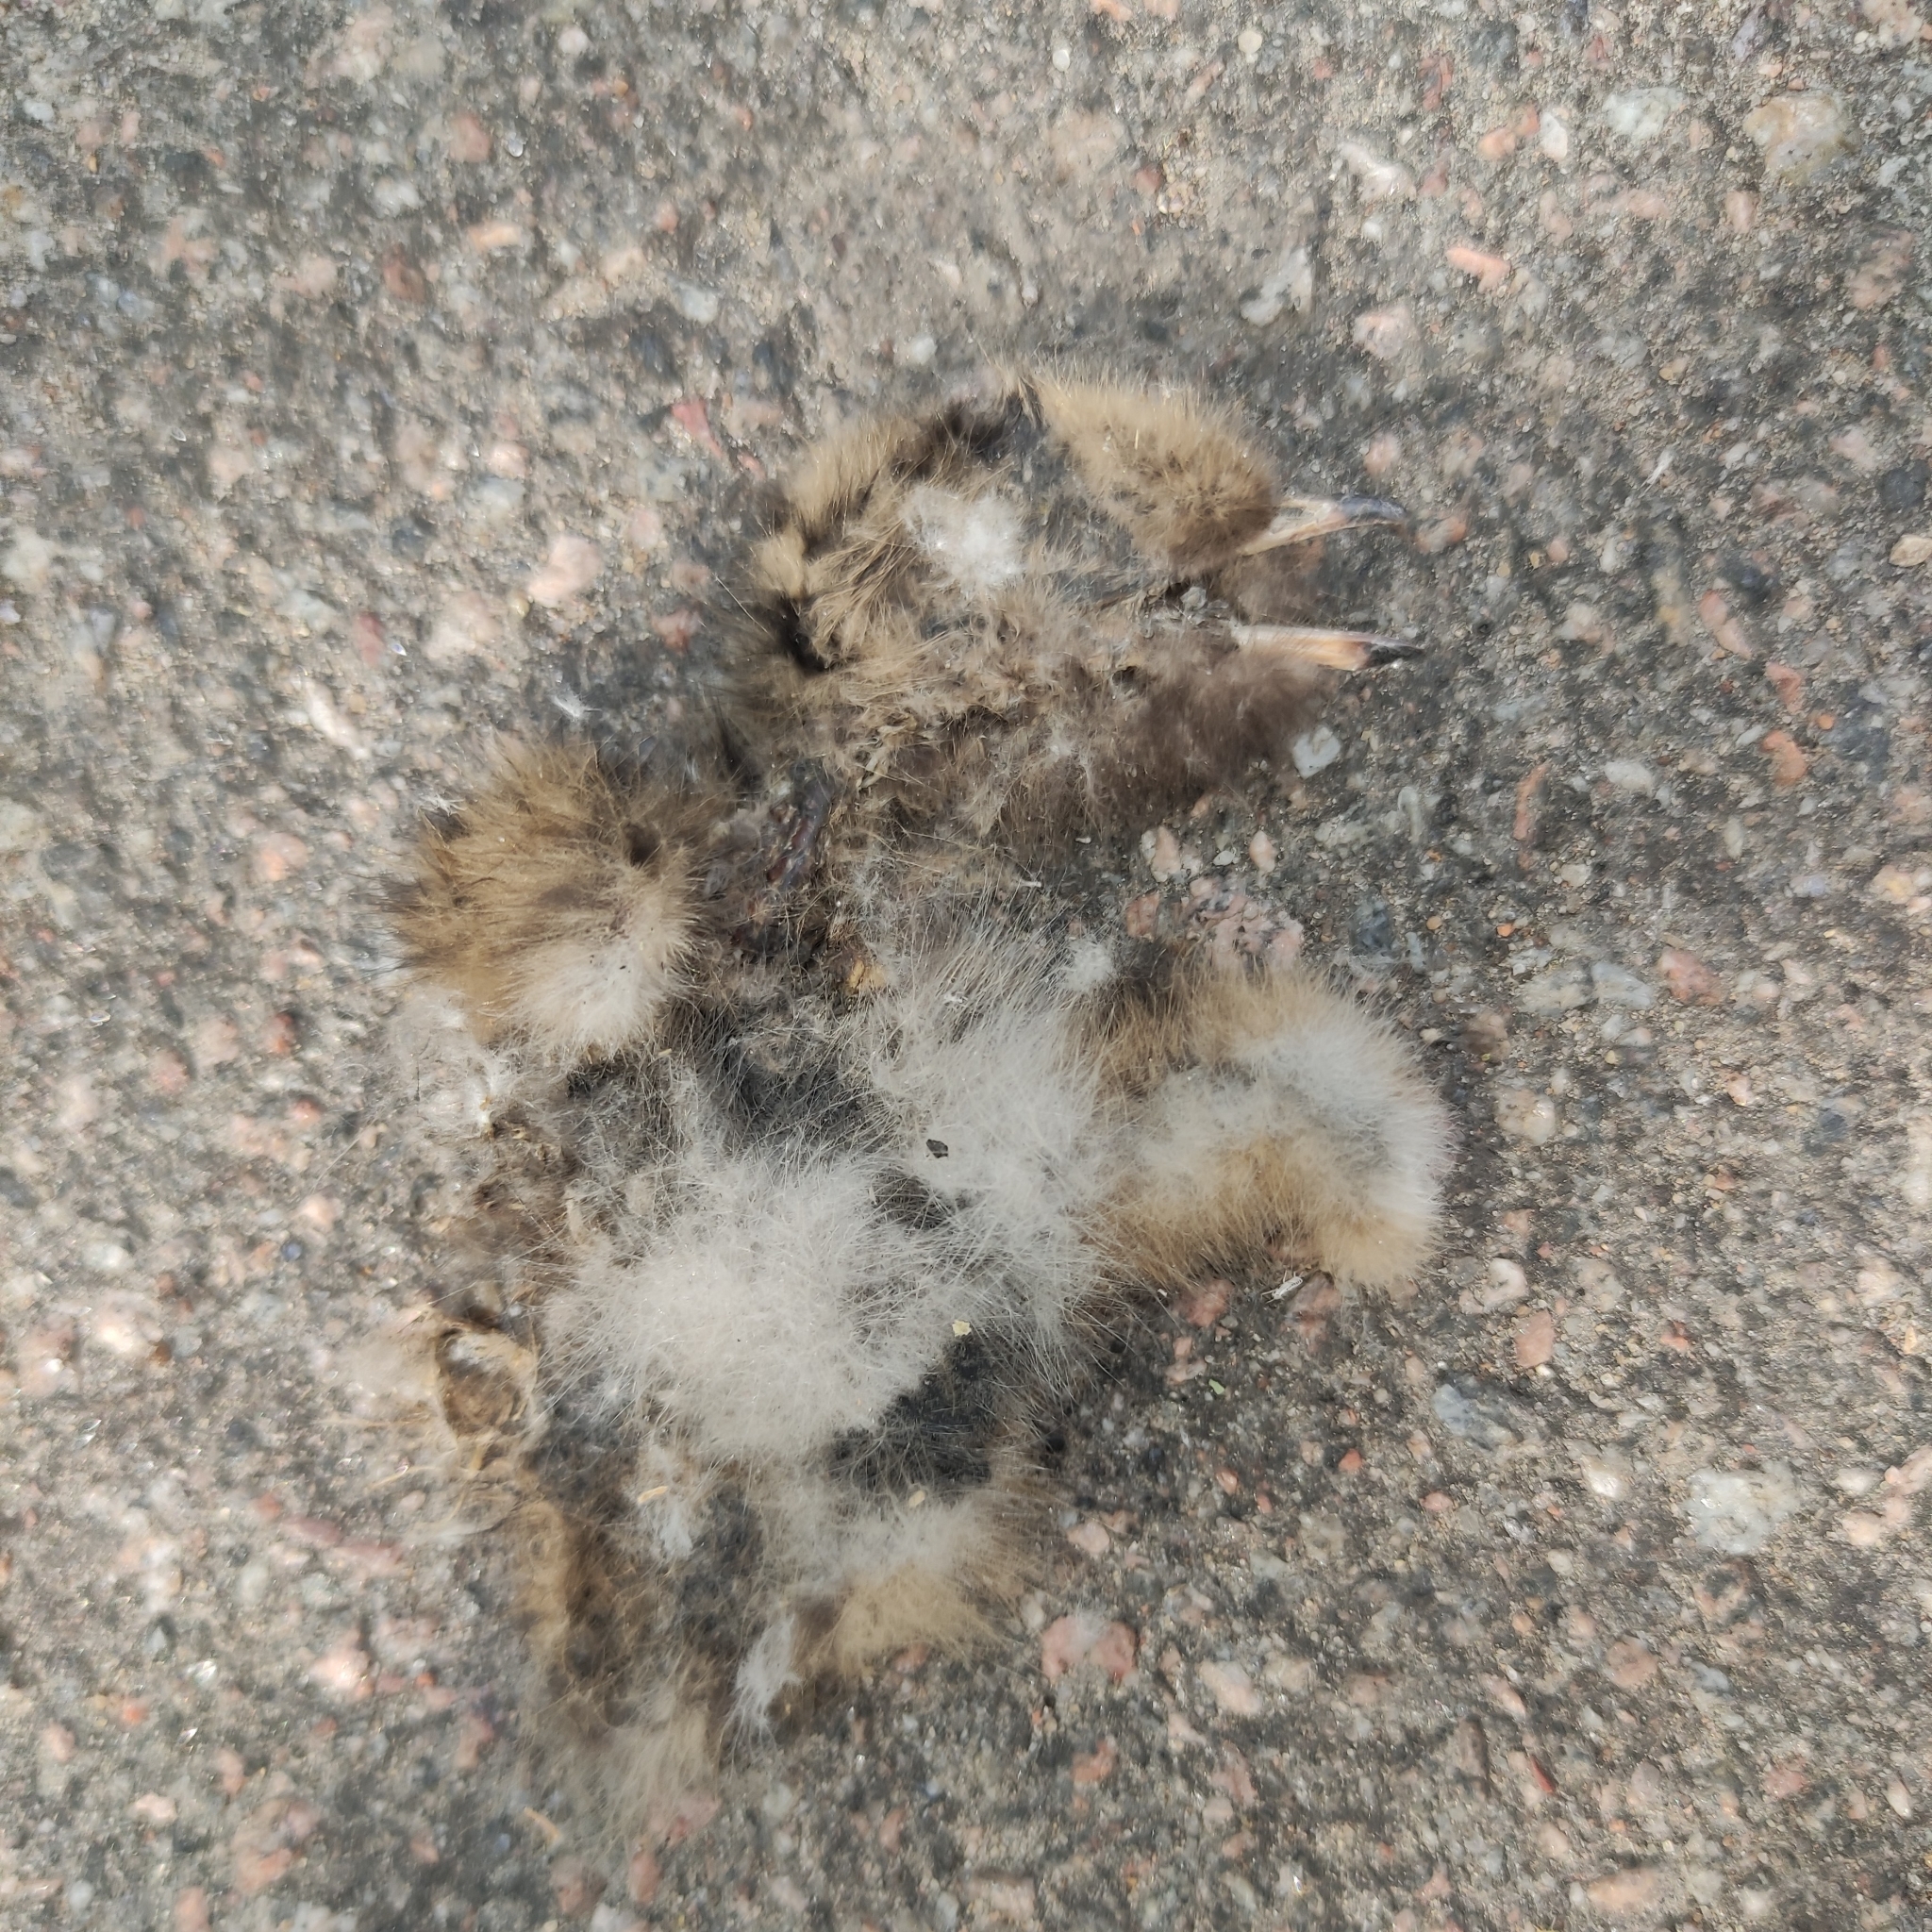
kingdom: Animalia
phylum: Chordata
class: Aves
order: Charadriiformes
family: Laridae
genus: Sterna
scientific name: Sterna hirundo
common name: Common tern
